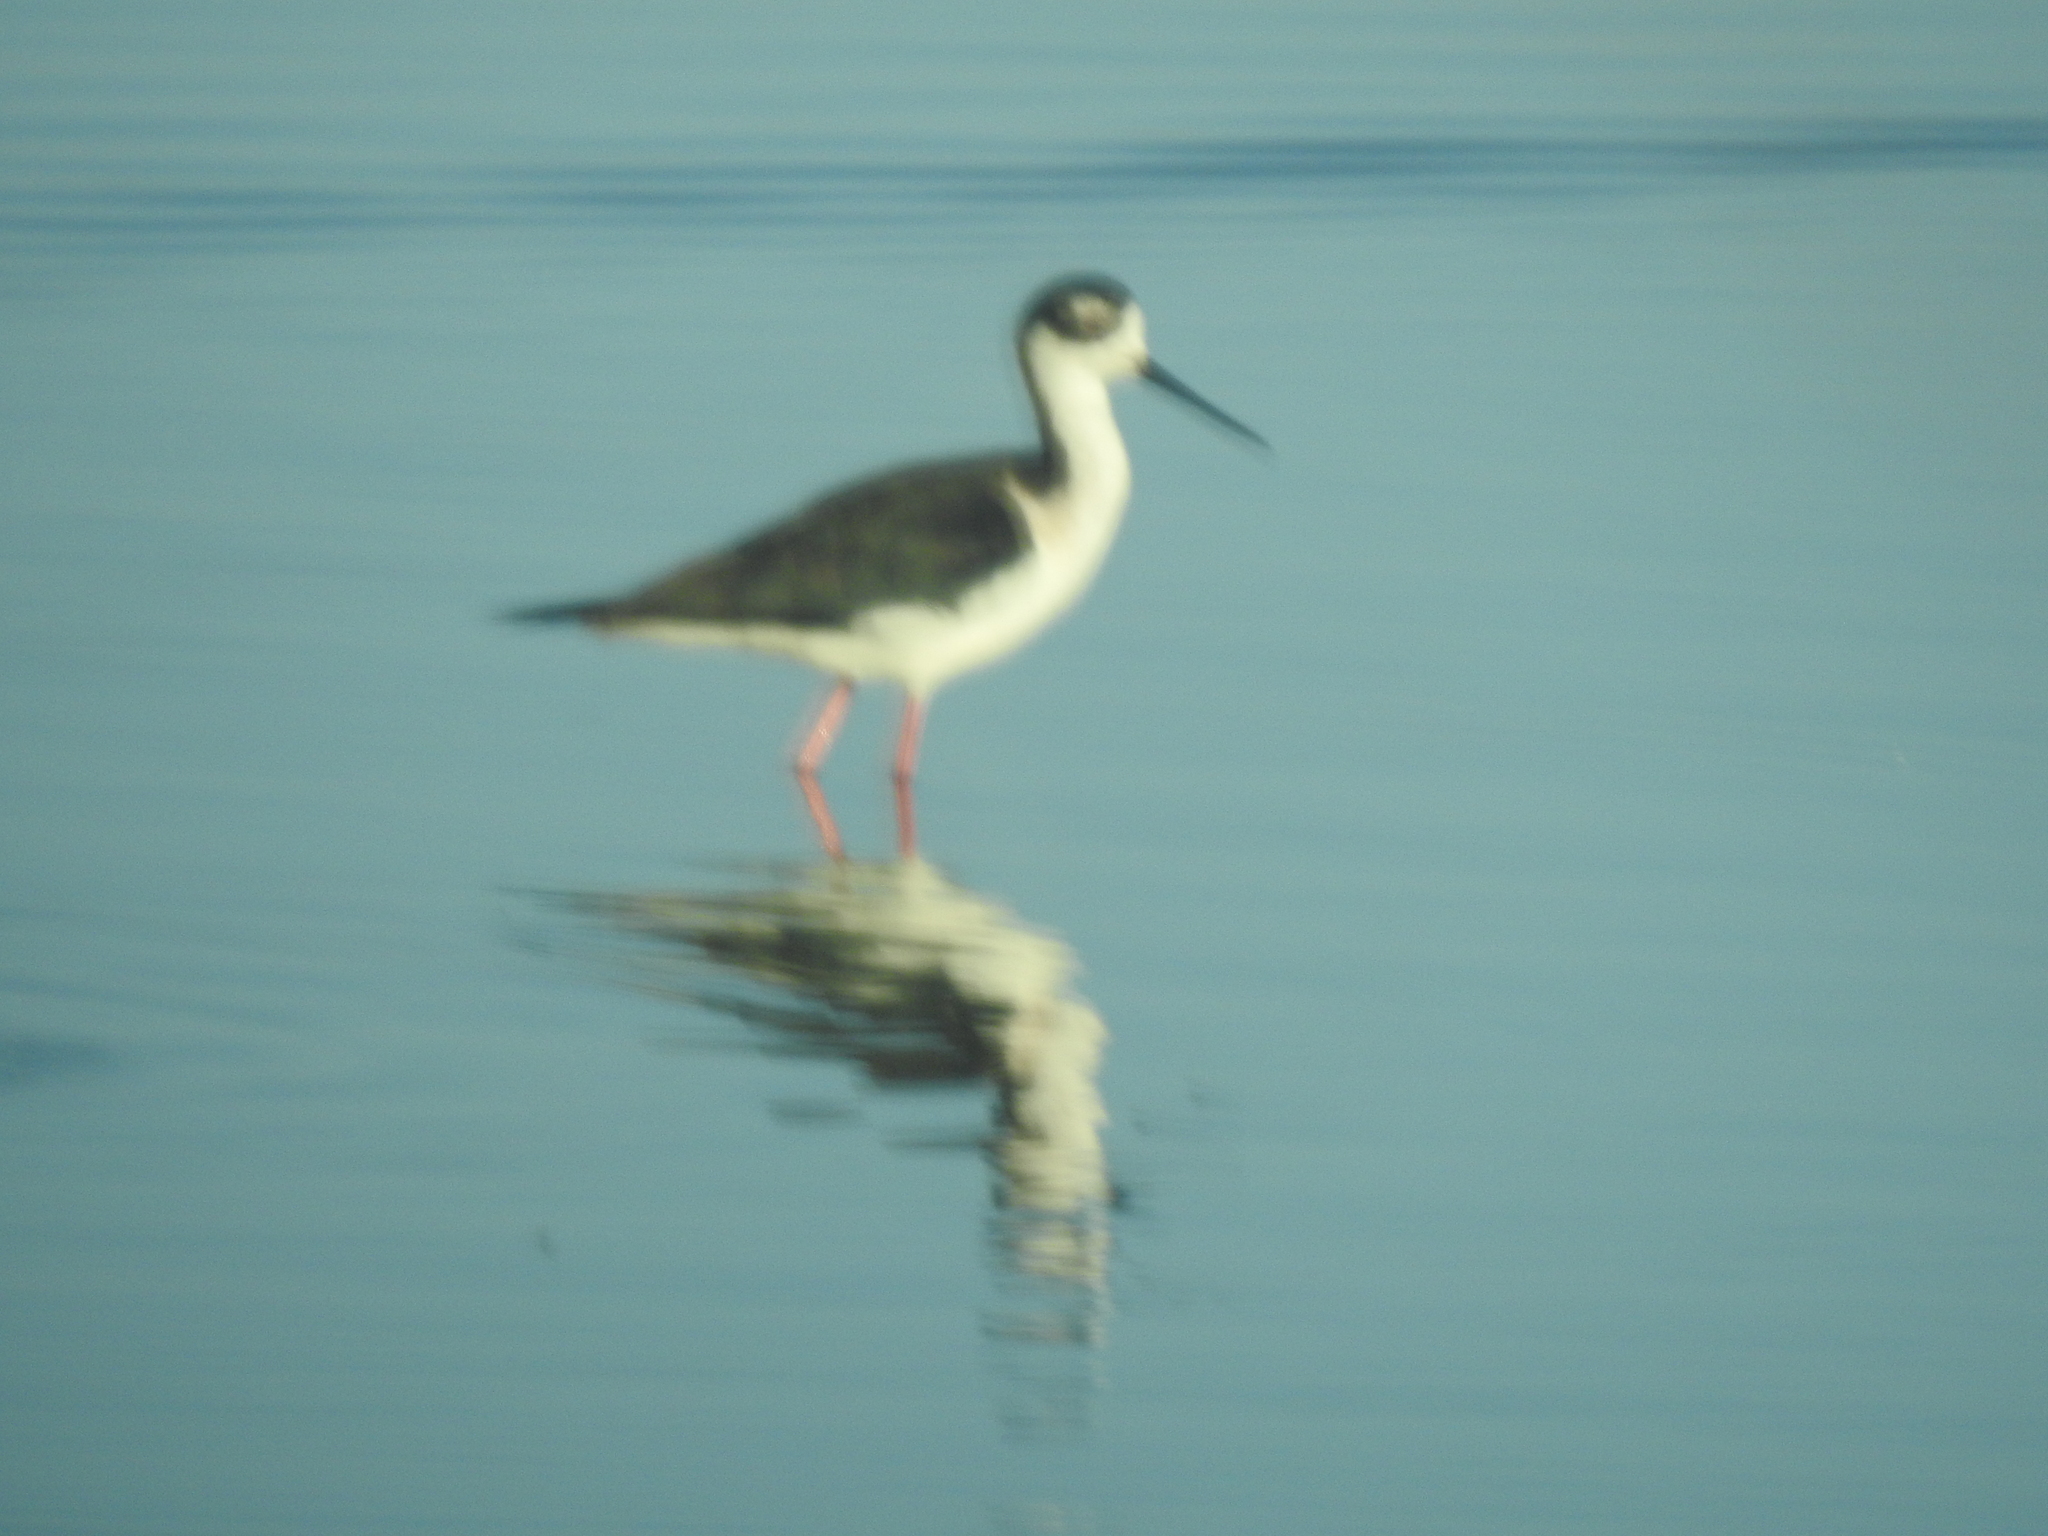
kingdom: Animalia
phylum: Chordata
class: Aves
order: Charadriiformes
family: Recurvirostridae
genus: Himantopus
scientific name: Himantopus mexicanus
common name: Black-necked stilt
